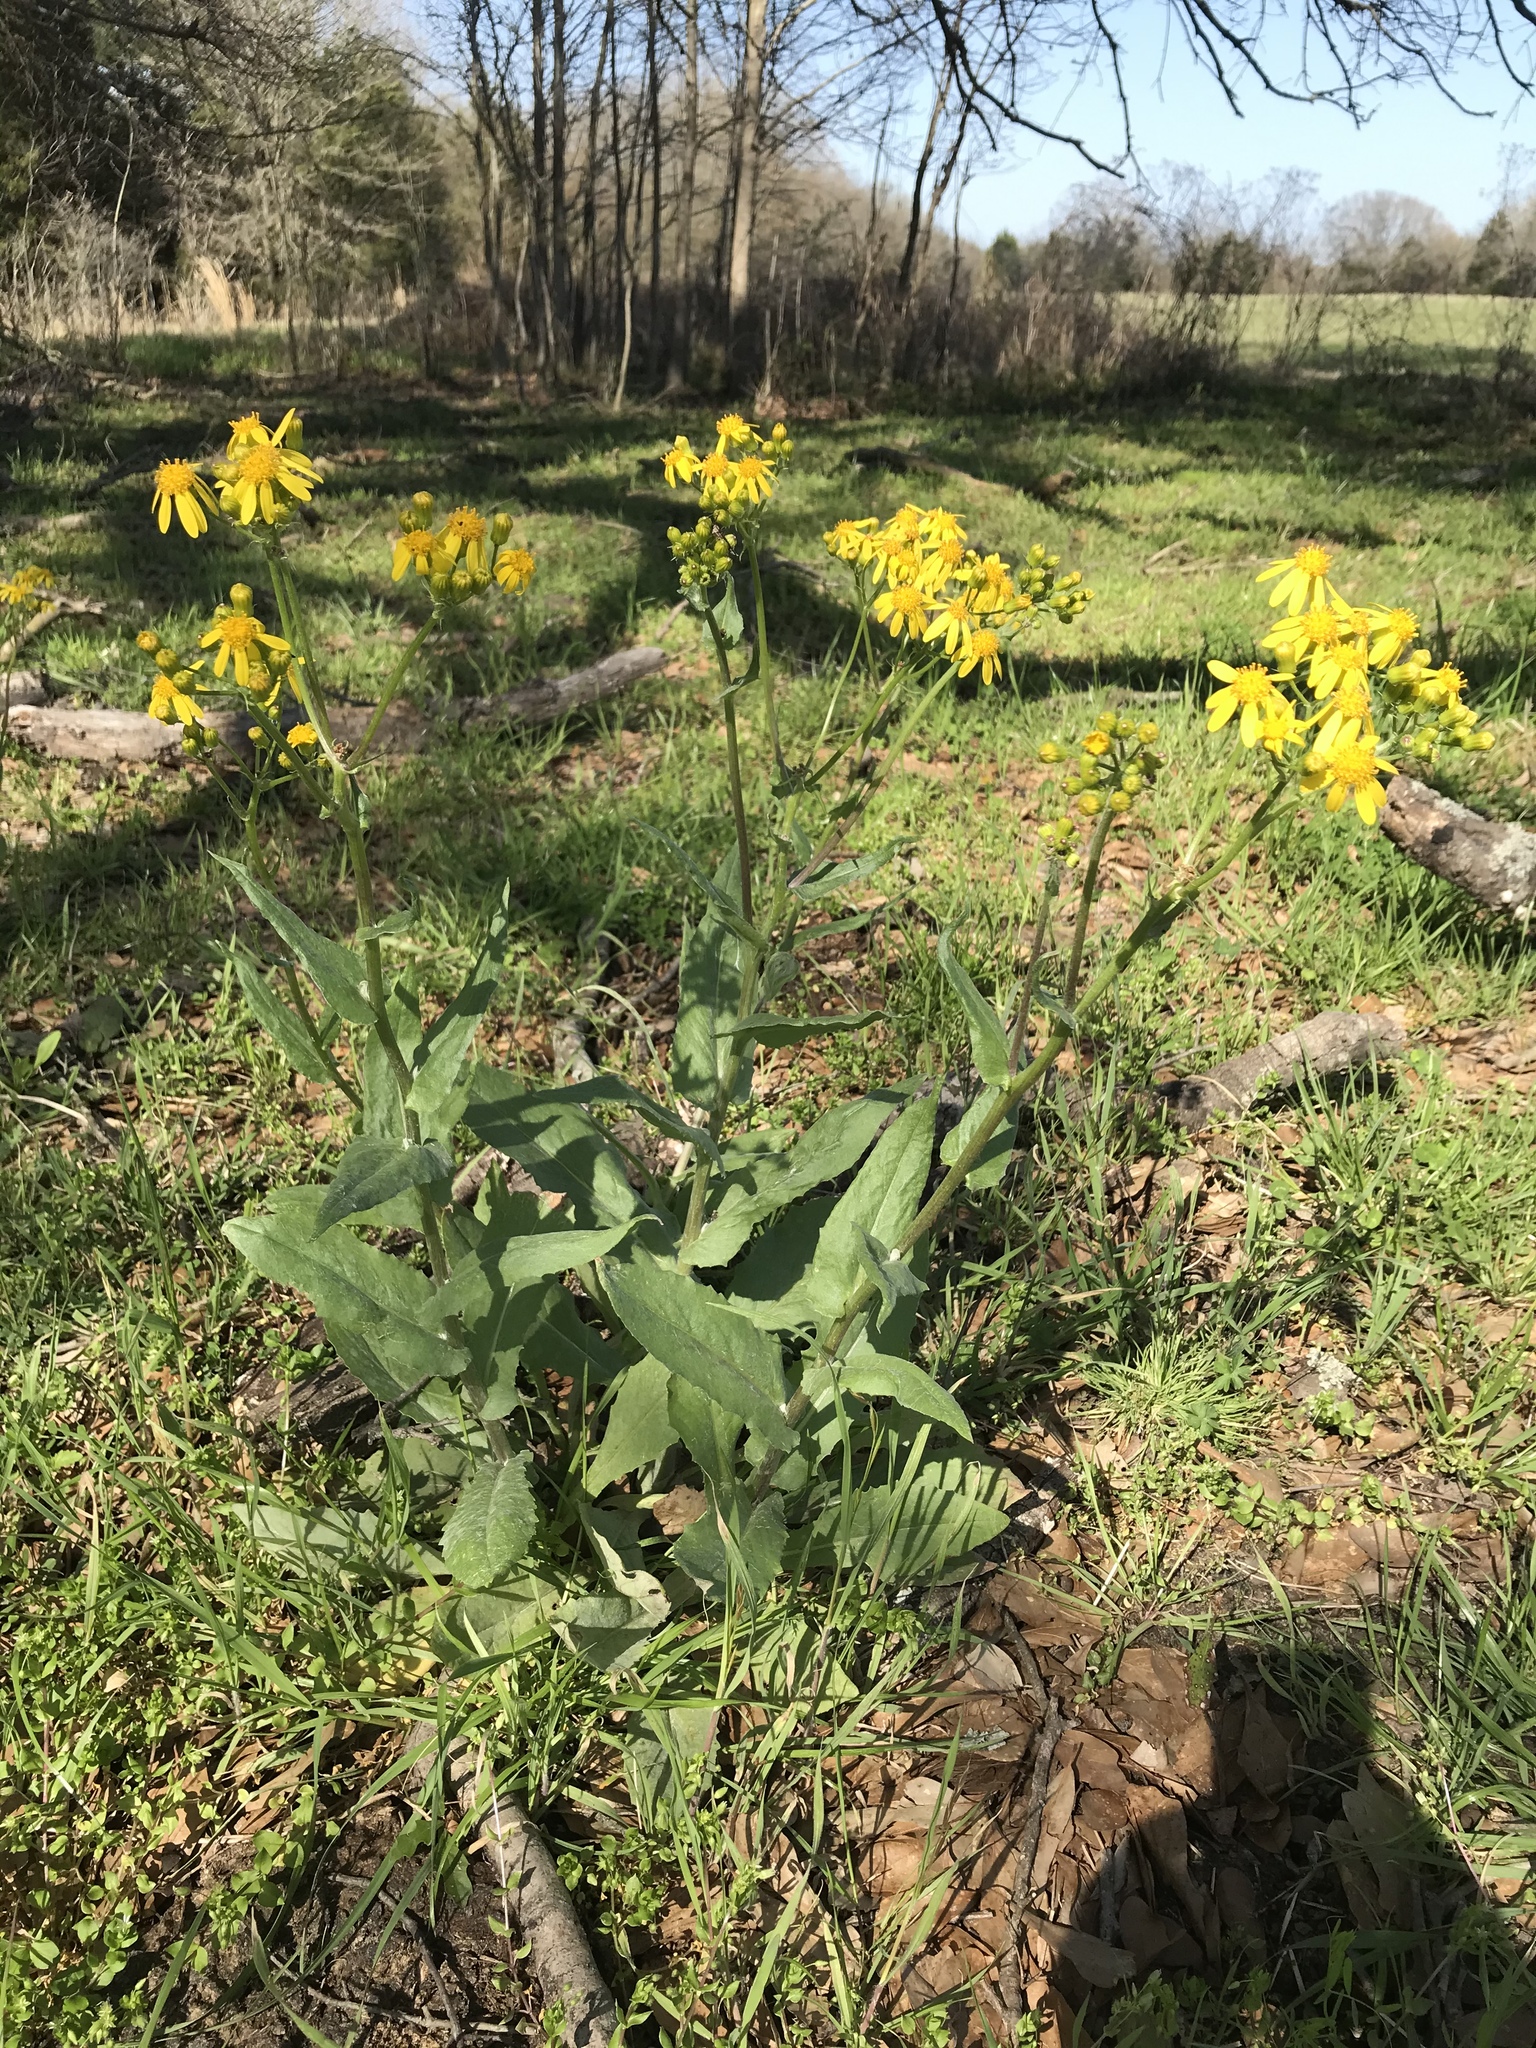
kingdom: Plantae
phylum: Tracheophyta
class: Magnoliopsida
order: Asterales
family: Asteraceae
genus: Senecio
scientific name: Senecio ampullaceus
